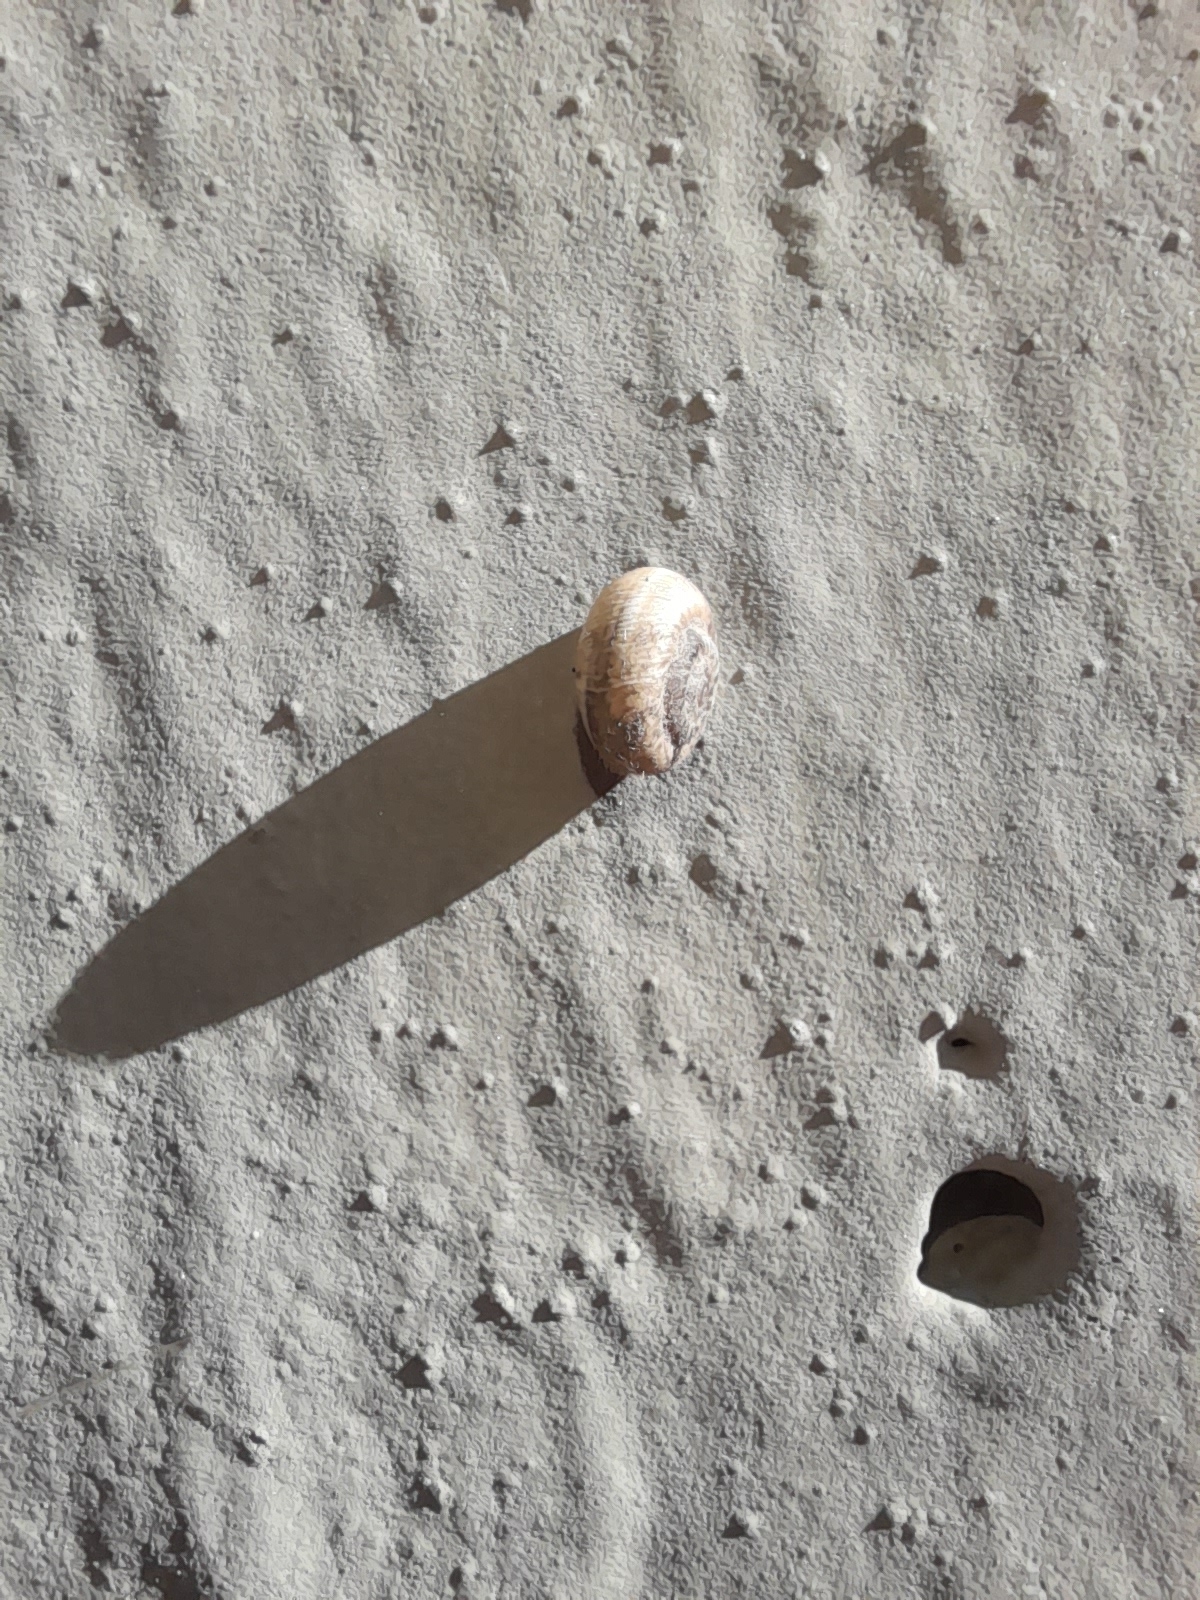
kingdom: Animalia
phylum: Mollusca
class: Gastropoda
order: Stylommatophora
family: Geomitridae
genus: Xerotricha
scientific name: Xerotricha apicina
